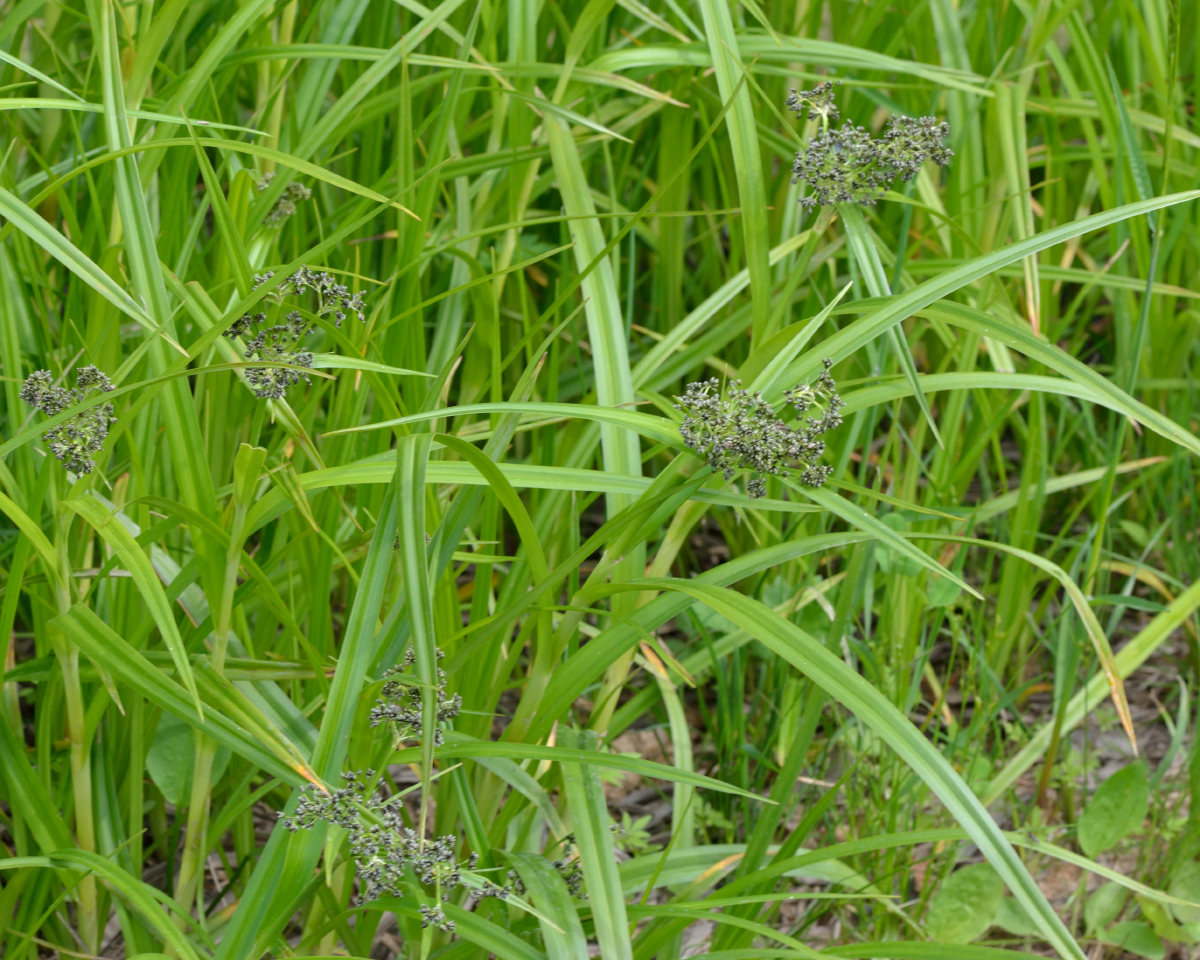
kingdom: Plantae
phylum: Tracheophyta
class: Liliopsida
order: Poales
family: Cyperaceae
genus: Scirpus
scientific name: Scirpus sylvaticus
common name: Wood club-rush
